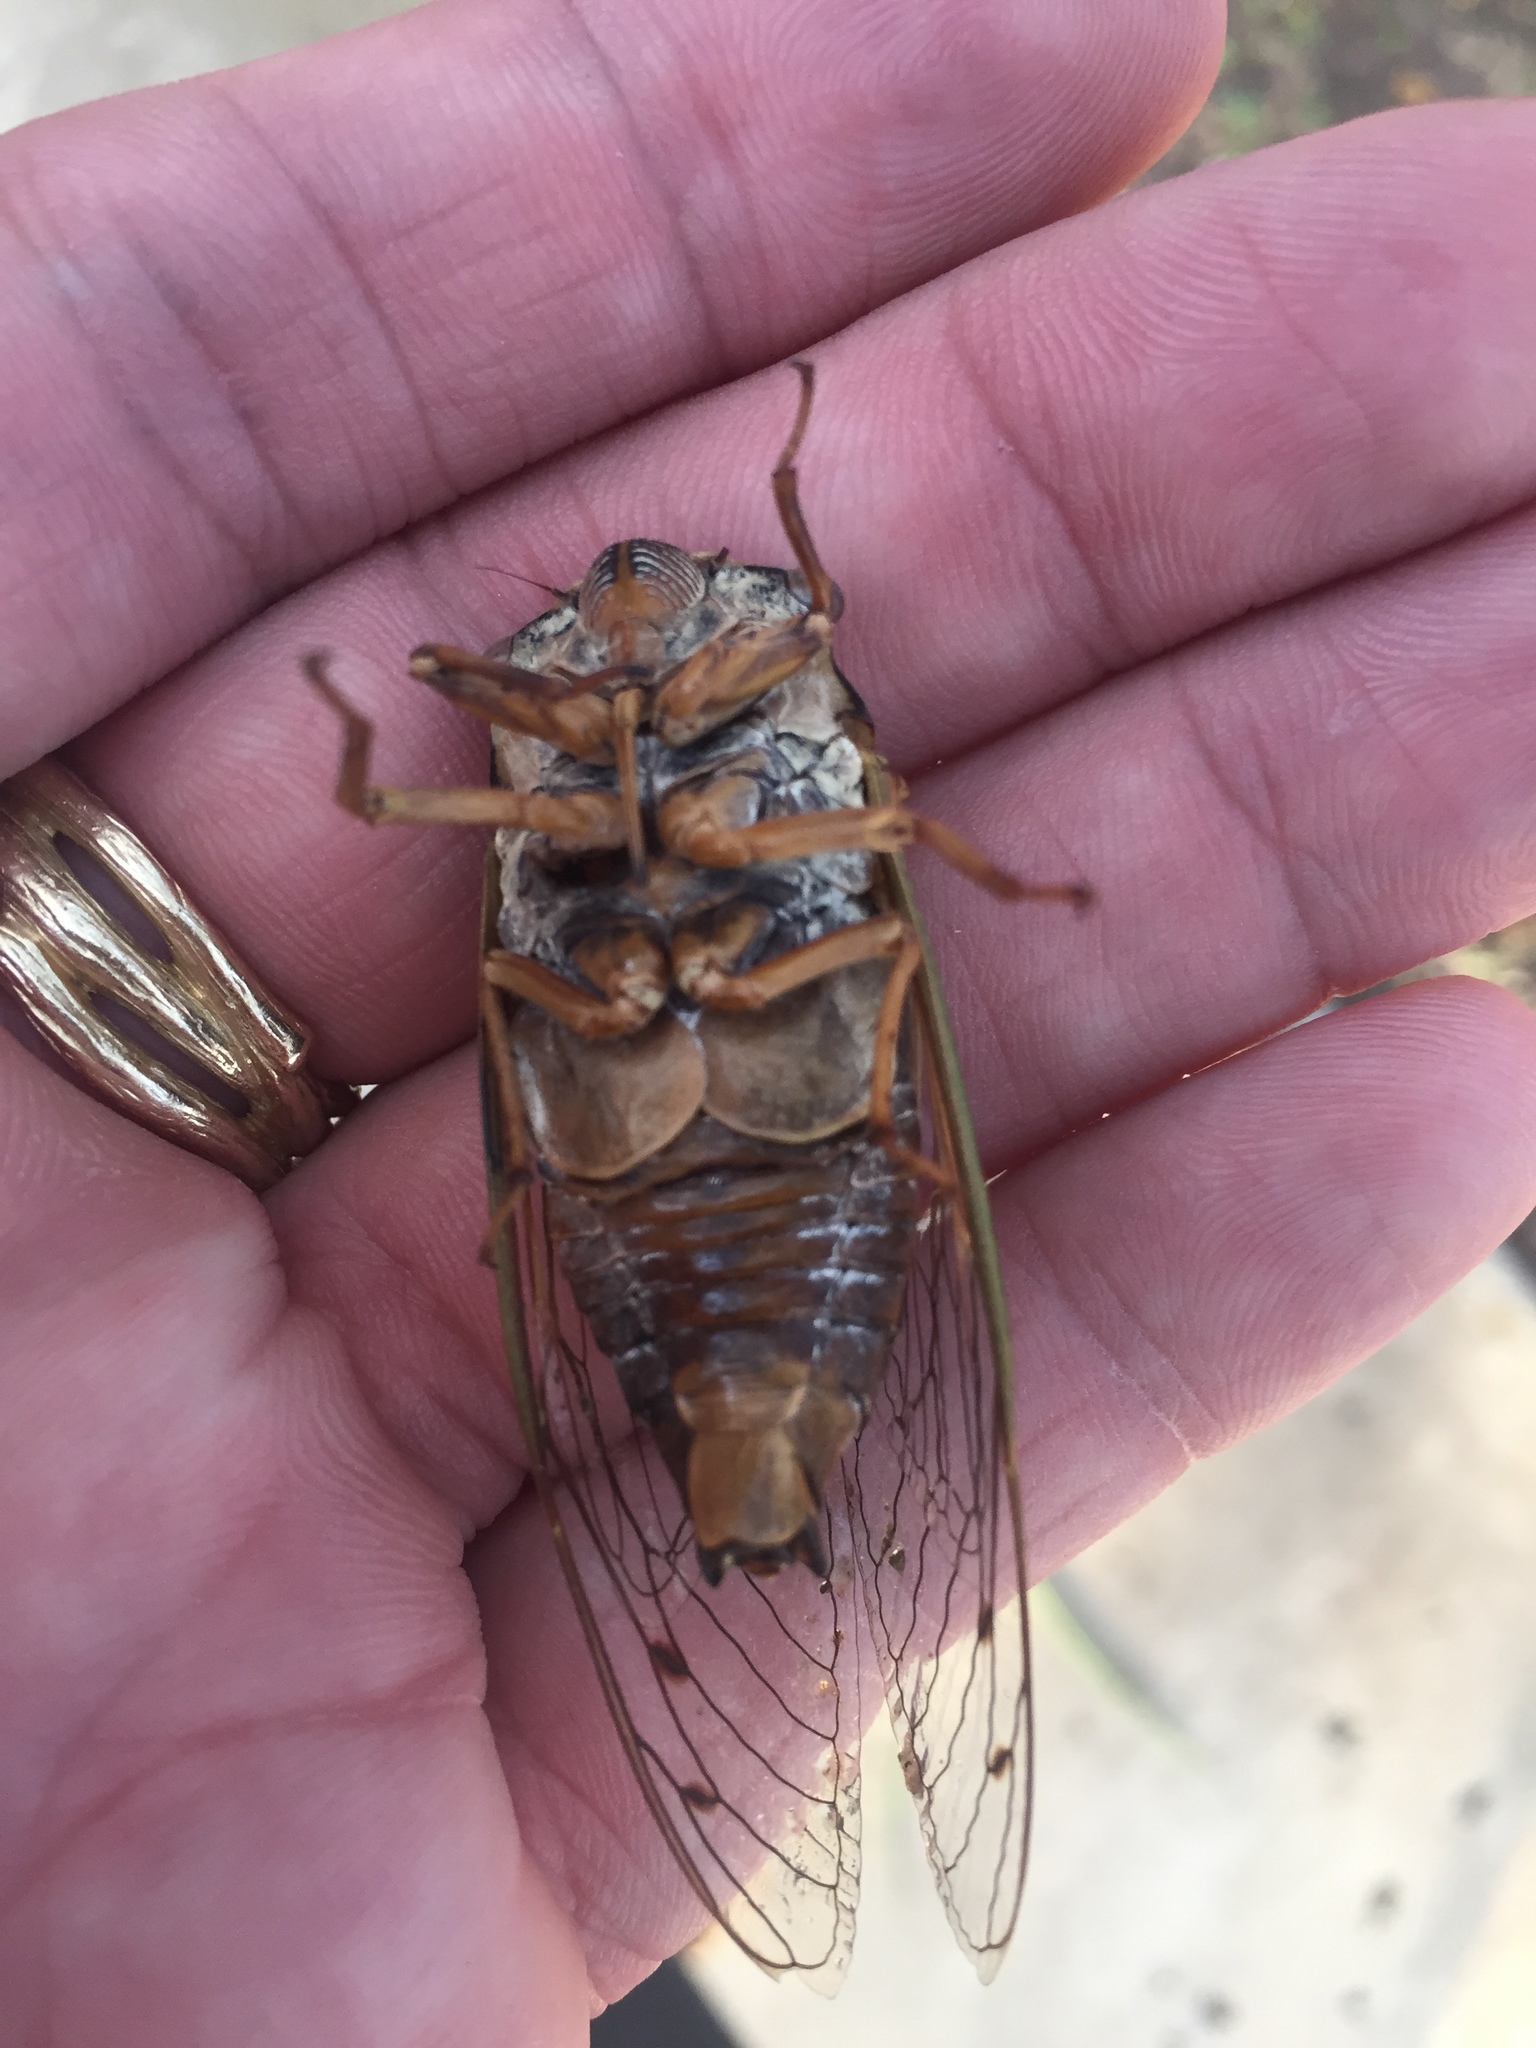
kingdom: Animalia
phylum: Arthropoda
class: Insecta
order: Hemiptera
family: Cicadidae
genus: Megatibicen
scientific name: Megatibicen resh
